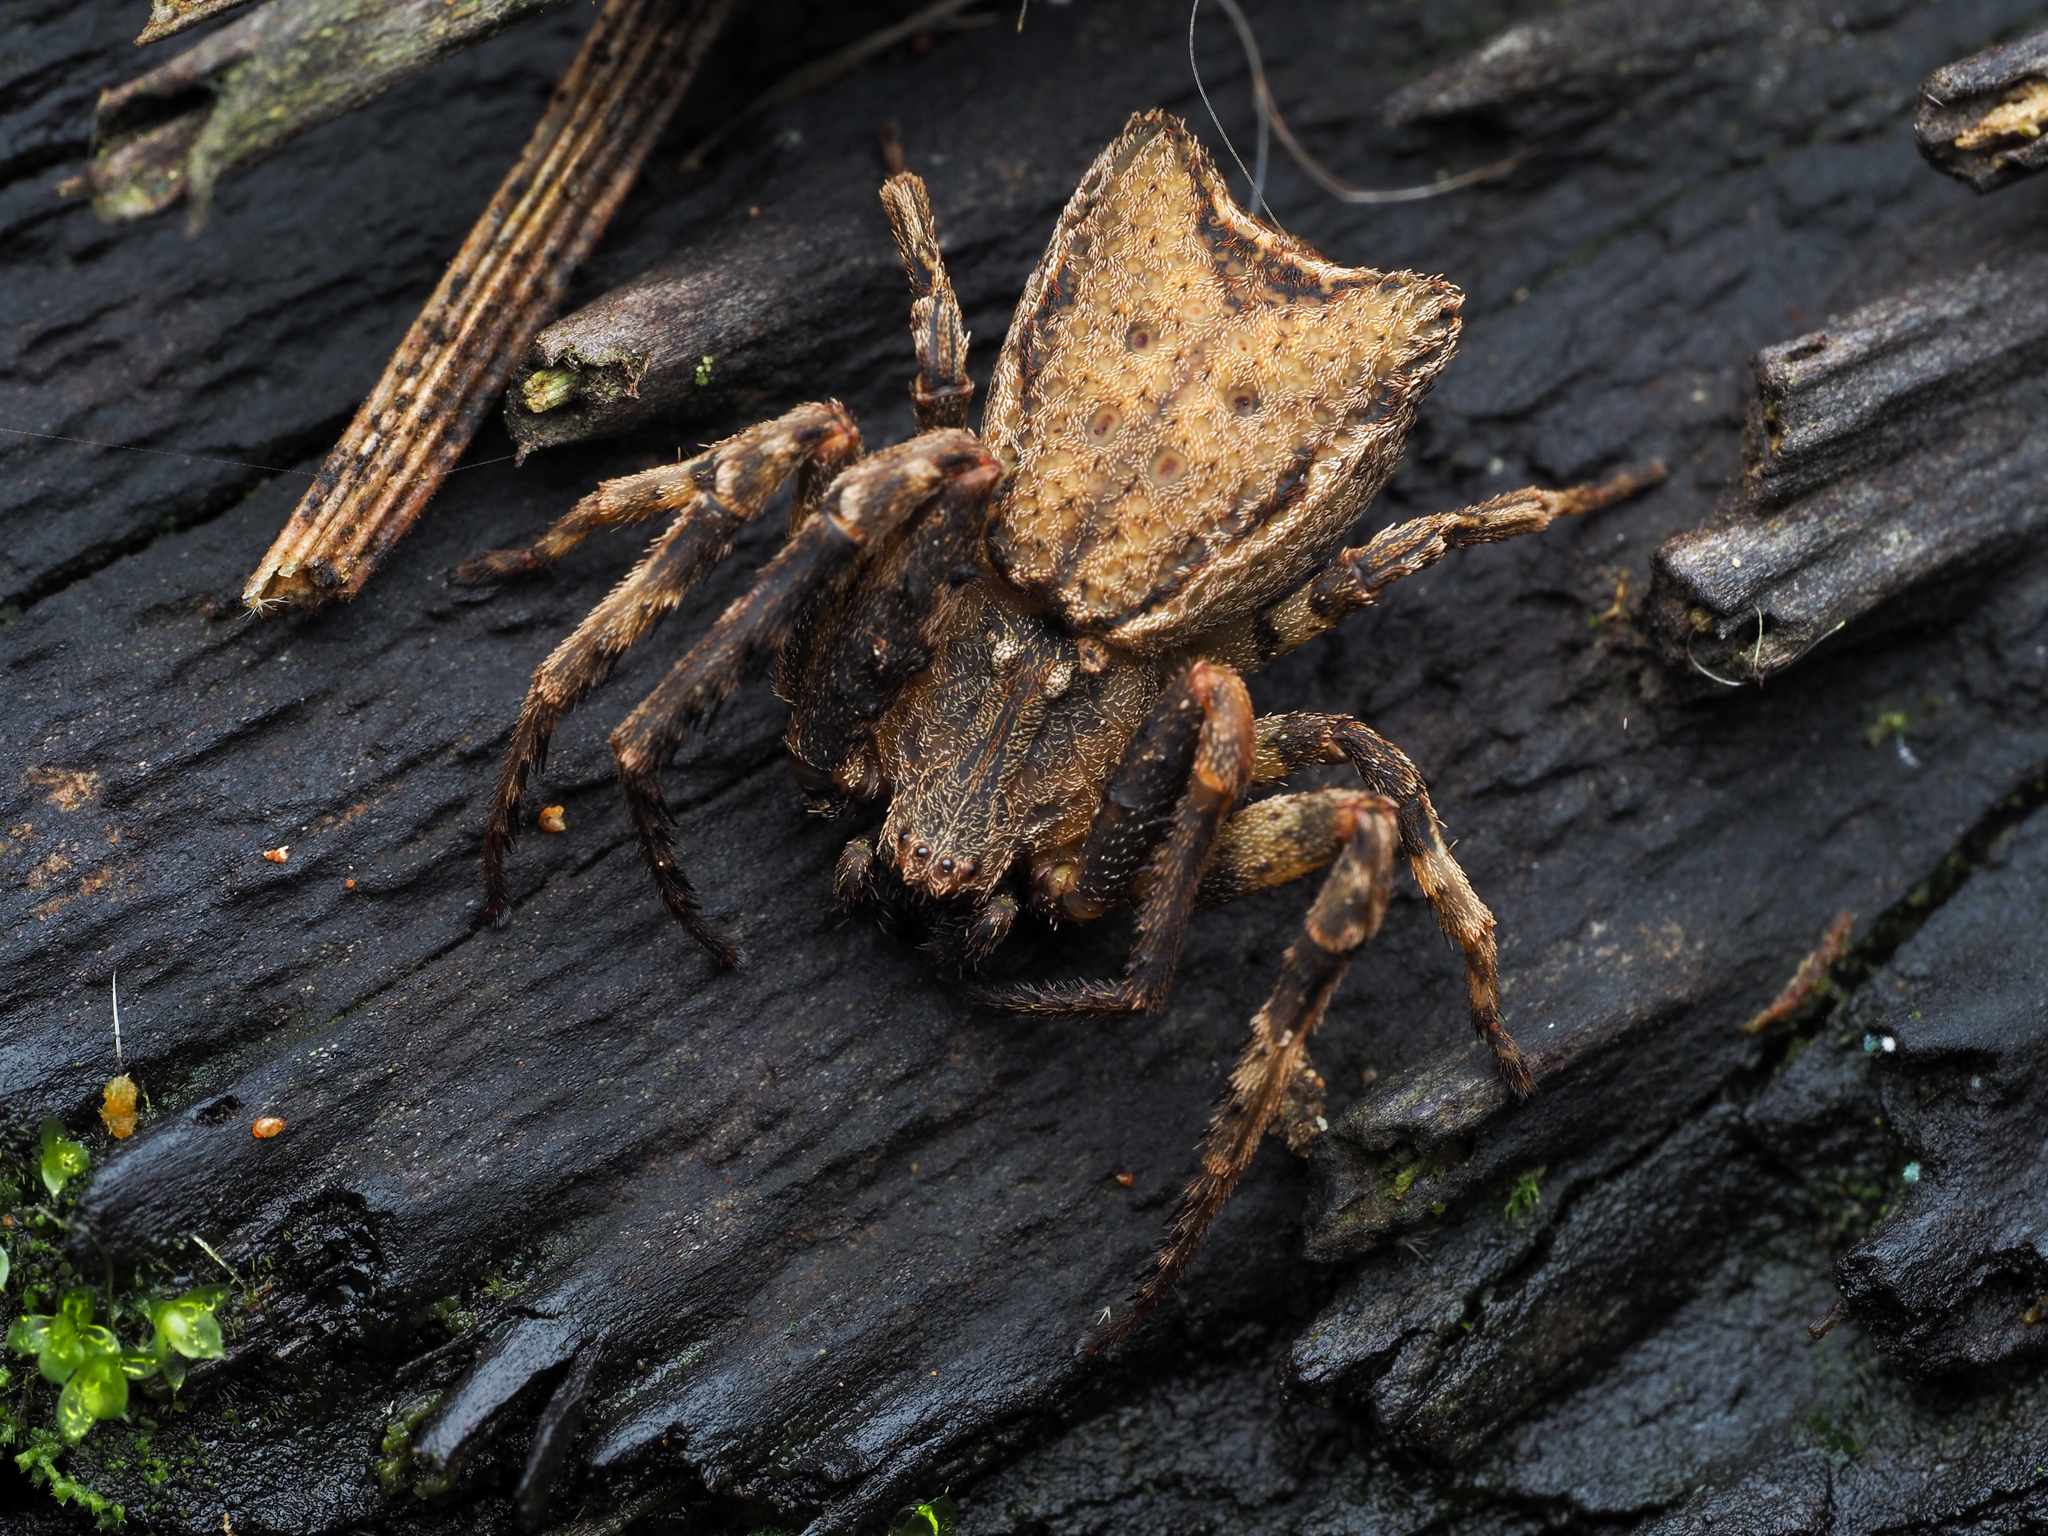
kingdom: Animalia
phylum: Arthropoda
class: Arachnida
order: Araneae
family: Thomisidae
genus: Sidymella
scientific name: Sidymella angularis
